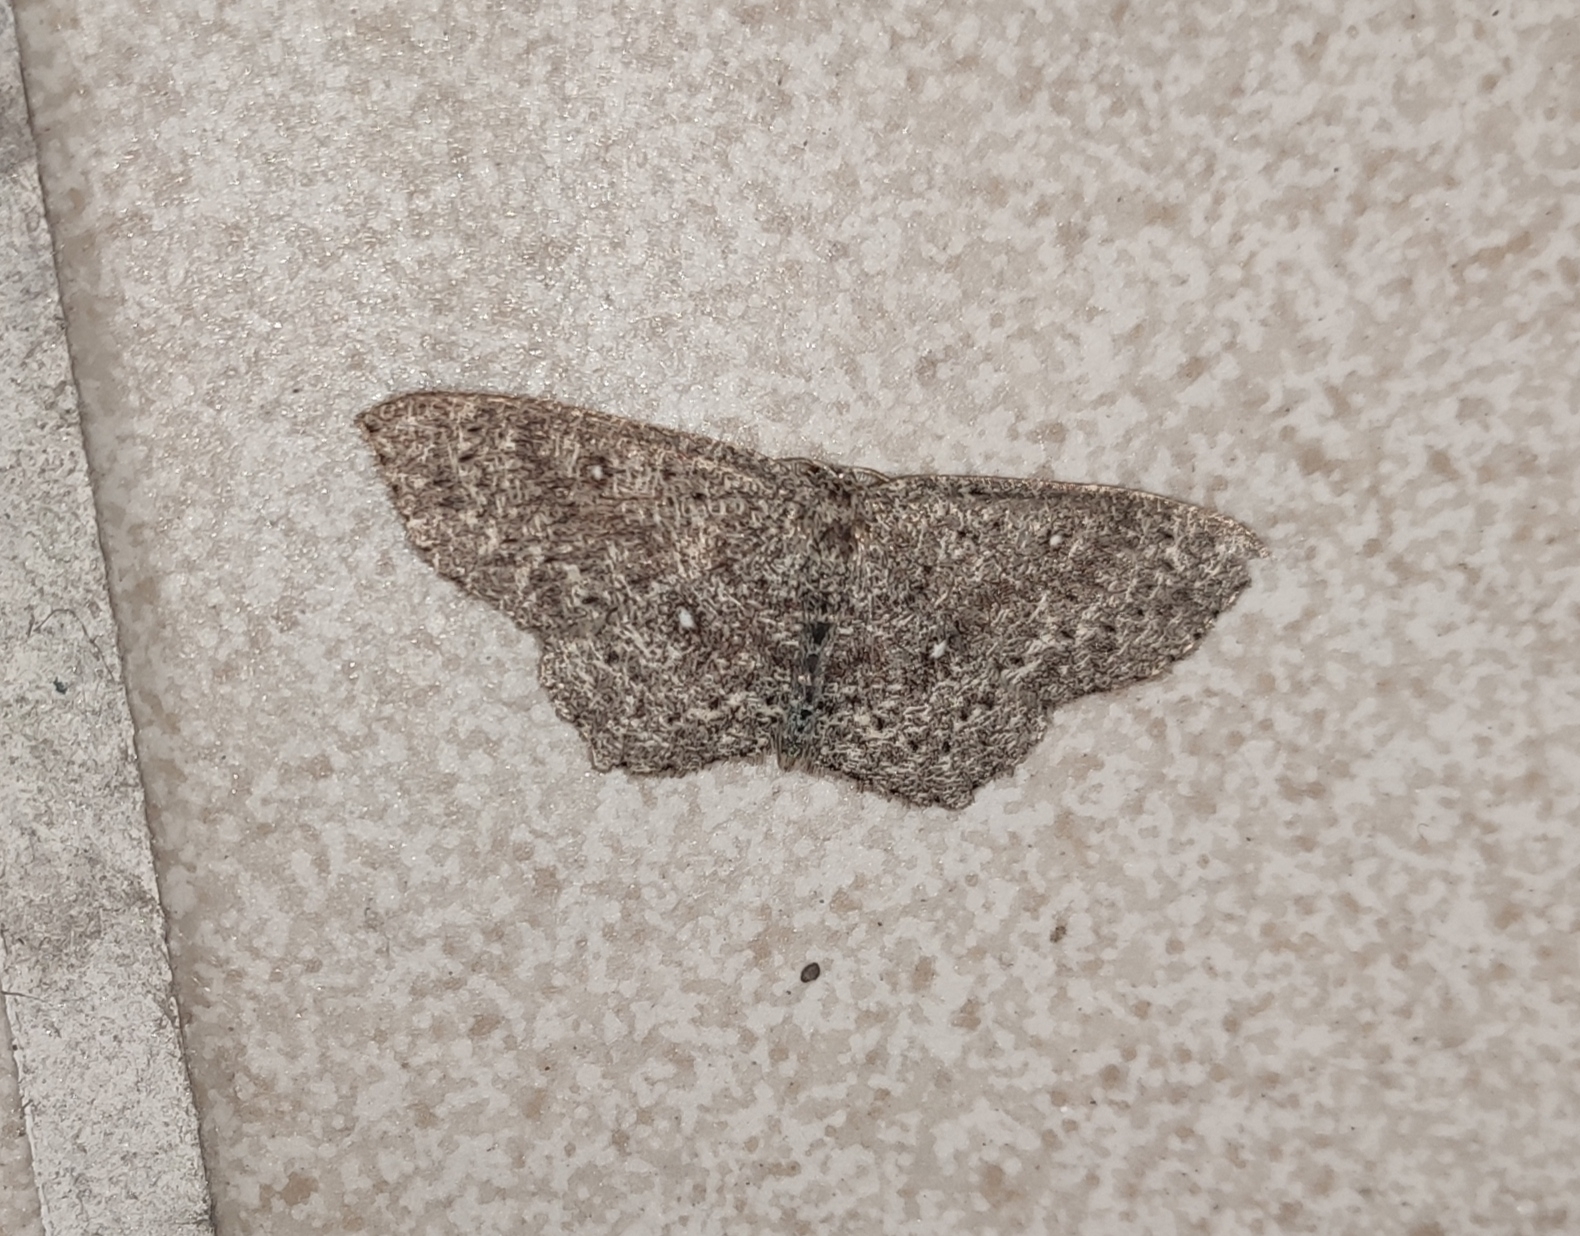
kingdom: Animalia
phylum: Arthropoda
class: Insecta
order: Lepidoptera
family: Geometridae
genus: Cyclophora
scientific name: Cyclophora pendularia
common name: Dingy mocha
